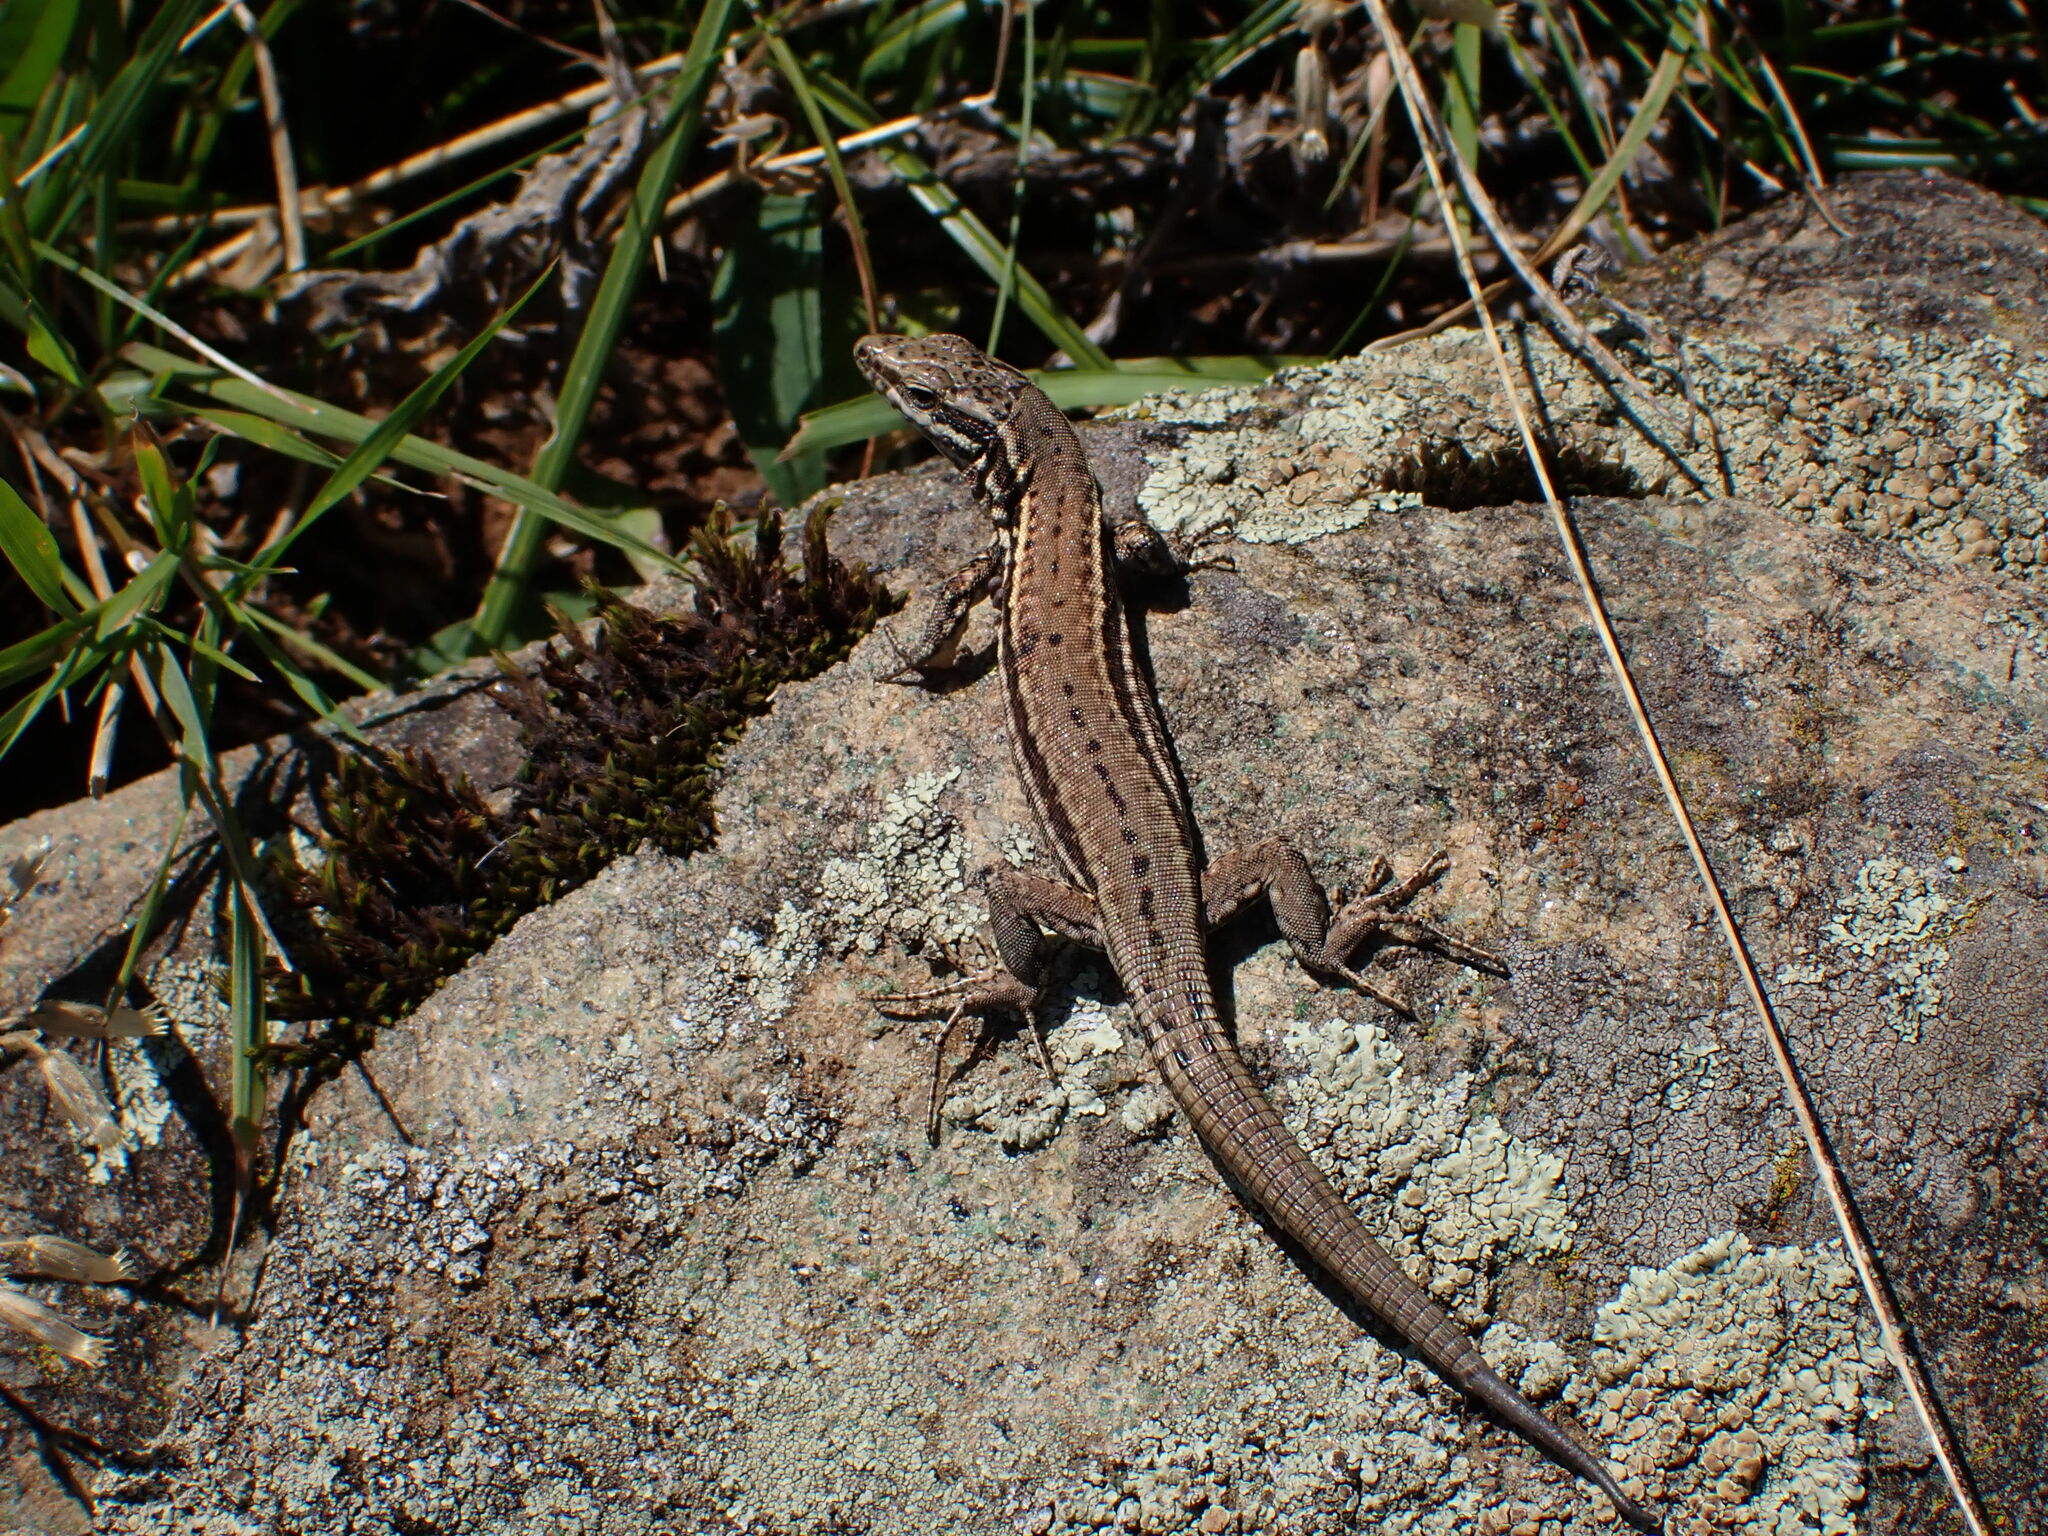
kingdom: Animalia
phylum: Chordata
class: Squamata
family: Lacertidae
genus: Podarcis
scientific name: Podarcis muralis
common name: Common wall lizard
